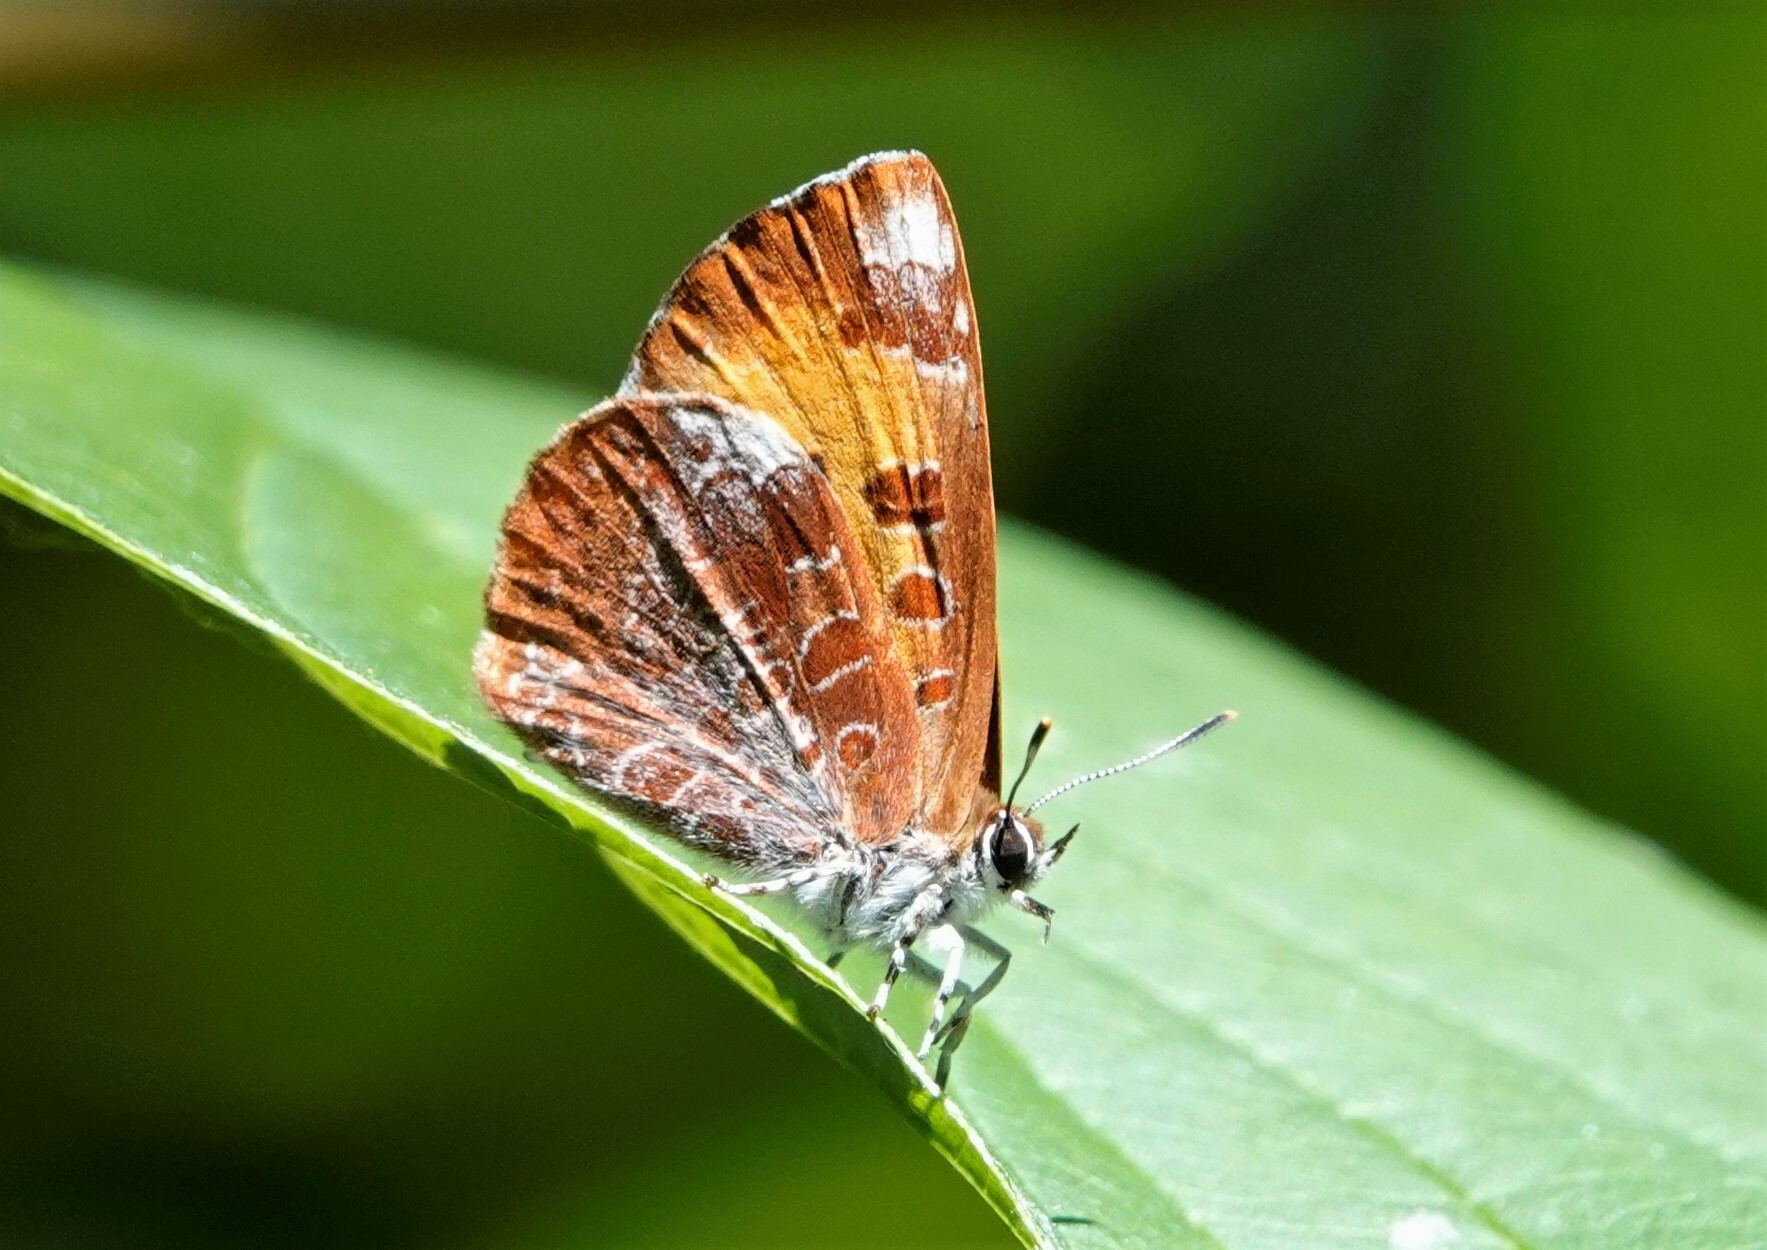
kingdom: Animalia
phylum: Arthropoda
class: Insecta
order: Lepidoptera
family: Lycaenidae
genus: Feniseca
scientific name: Feniseca tarquinius
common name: Harvester
